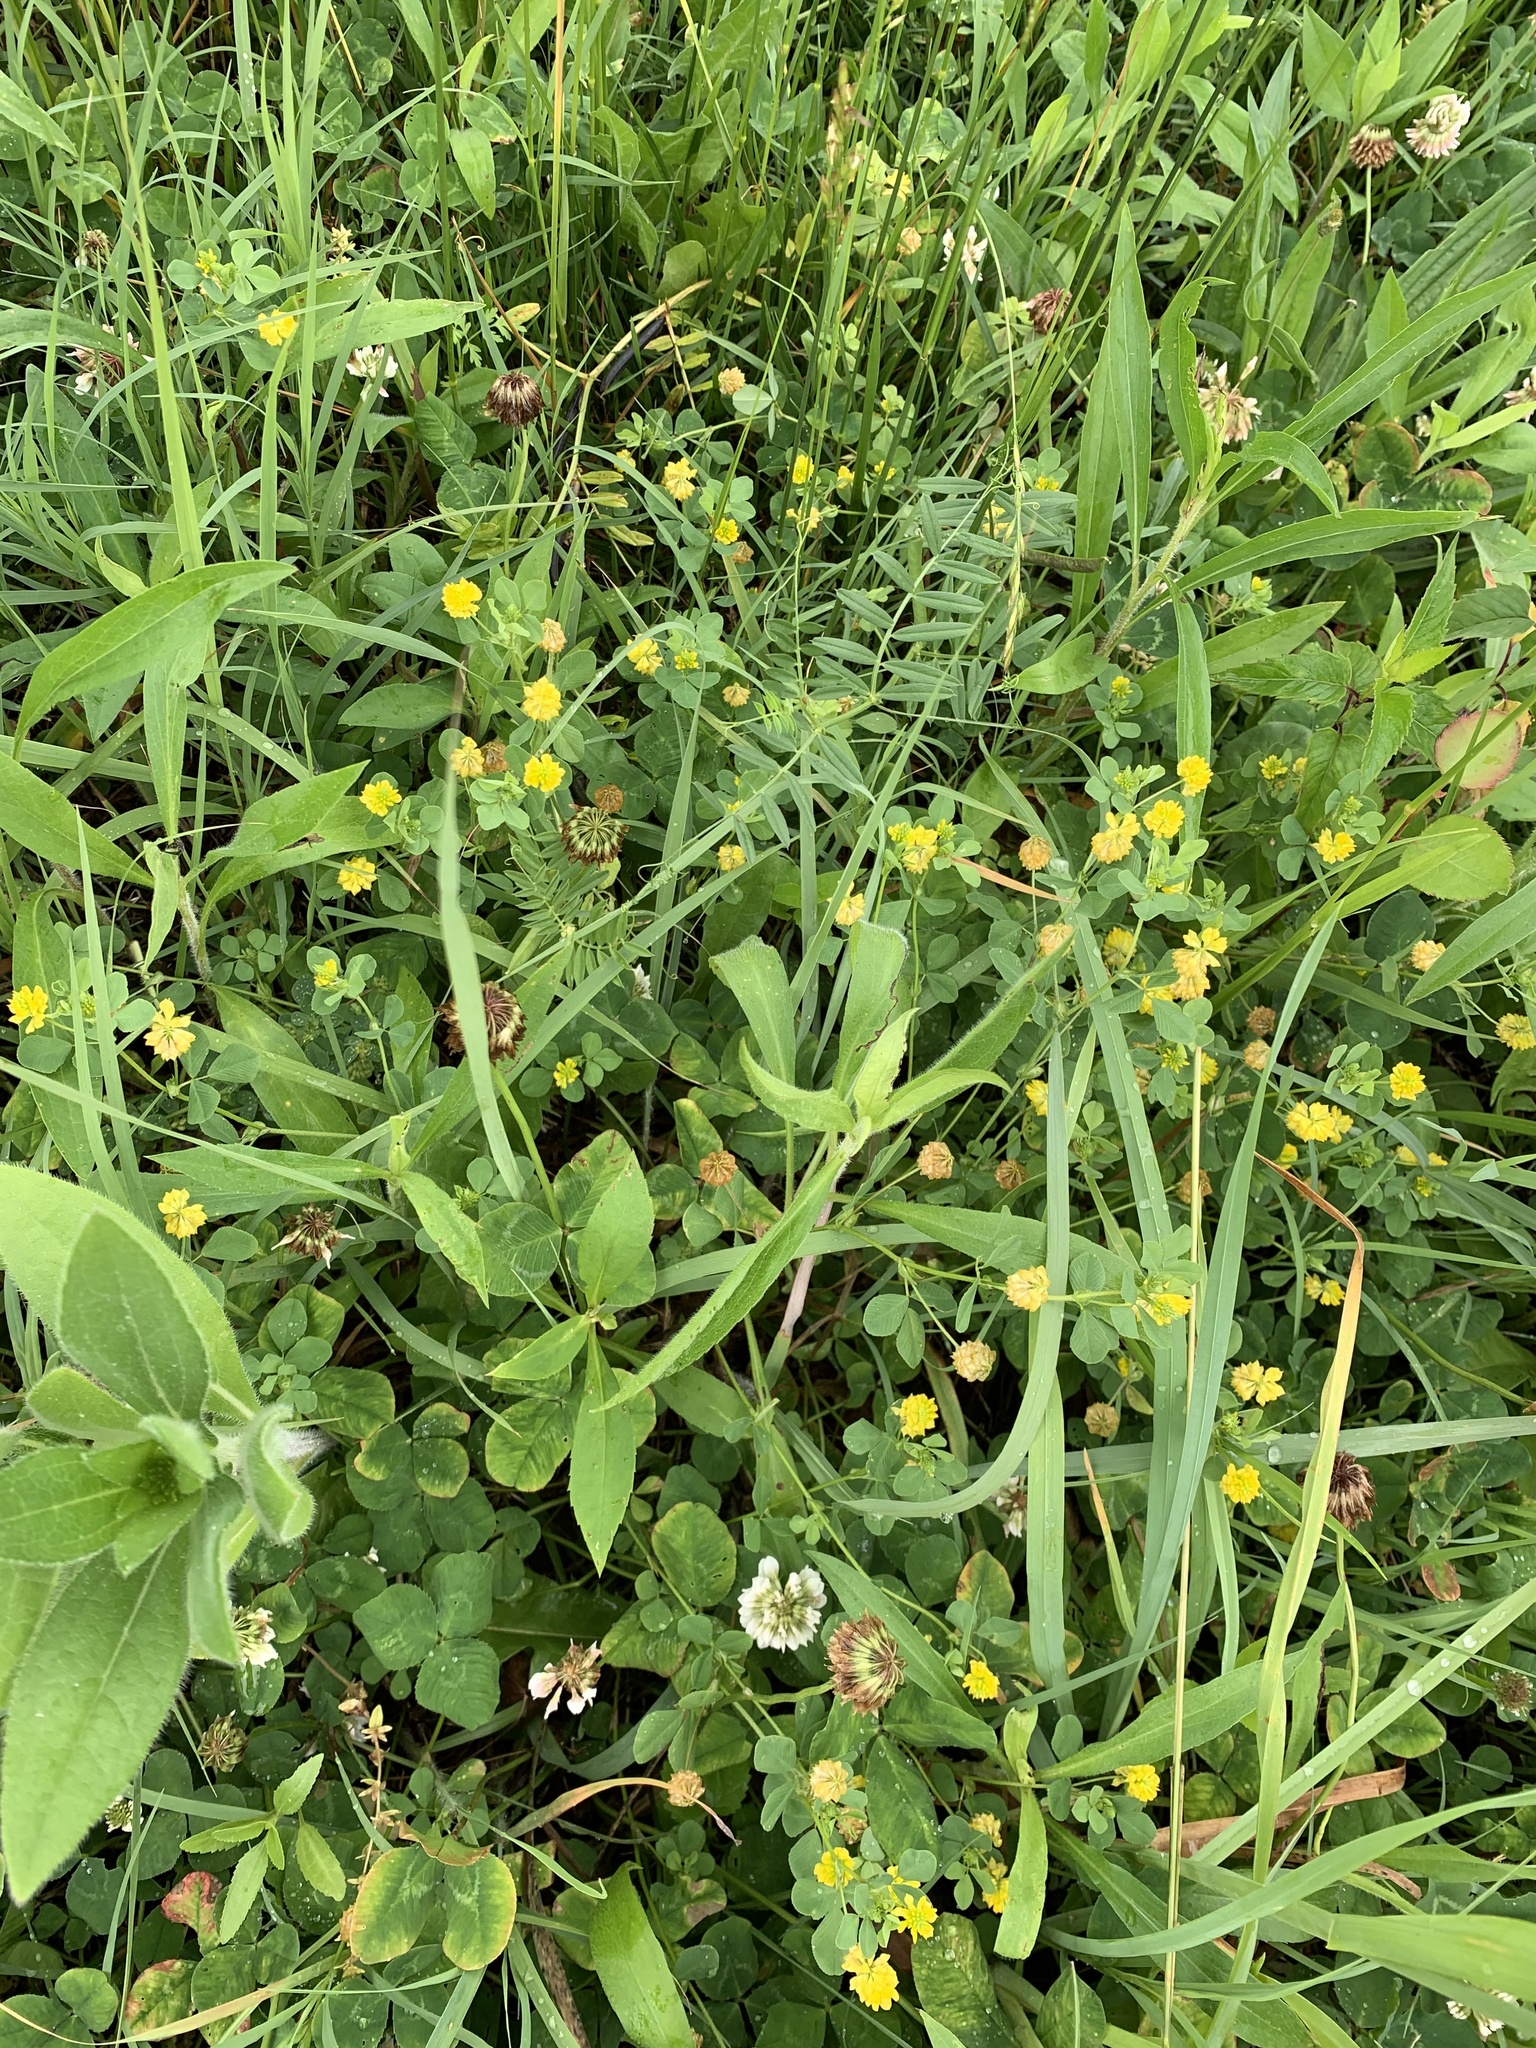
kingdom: Plantae
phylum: Tracheophyta
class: Magnoliopsida
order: Fabales
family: Fabaceae
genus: Trifolium
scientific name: Trifolium campestre
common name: Field clover
